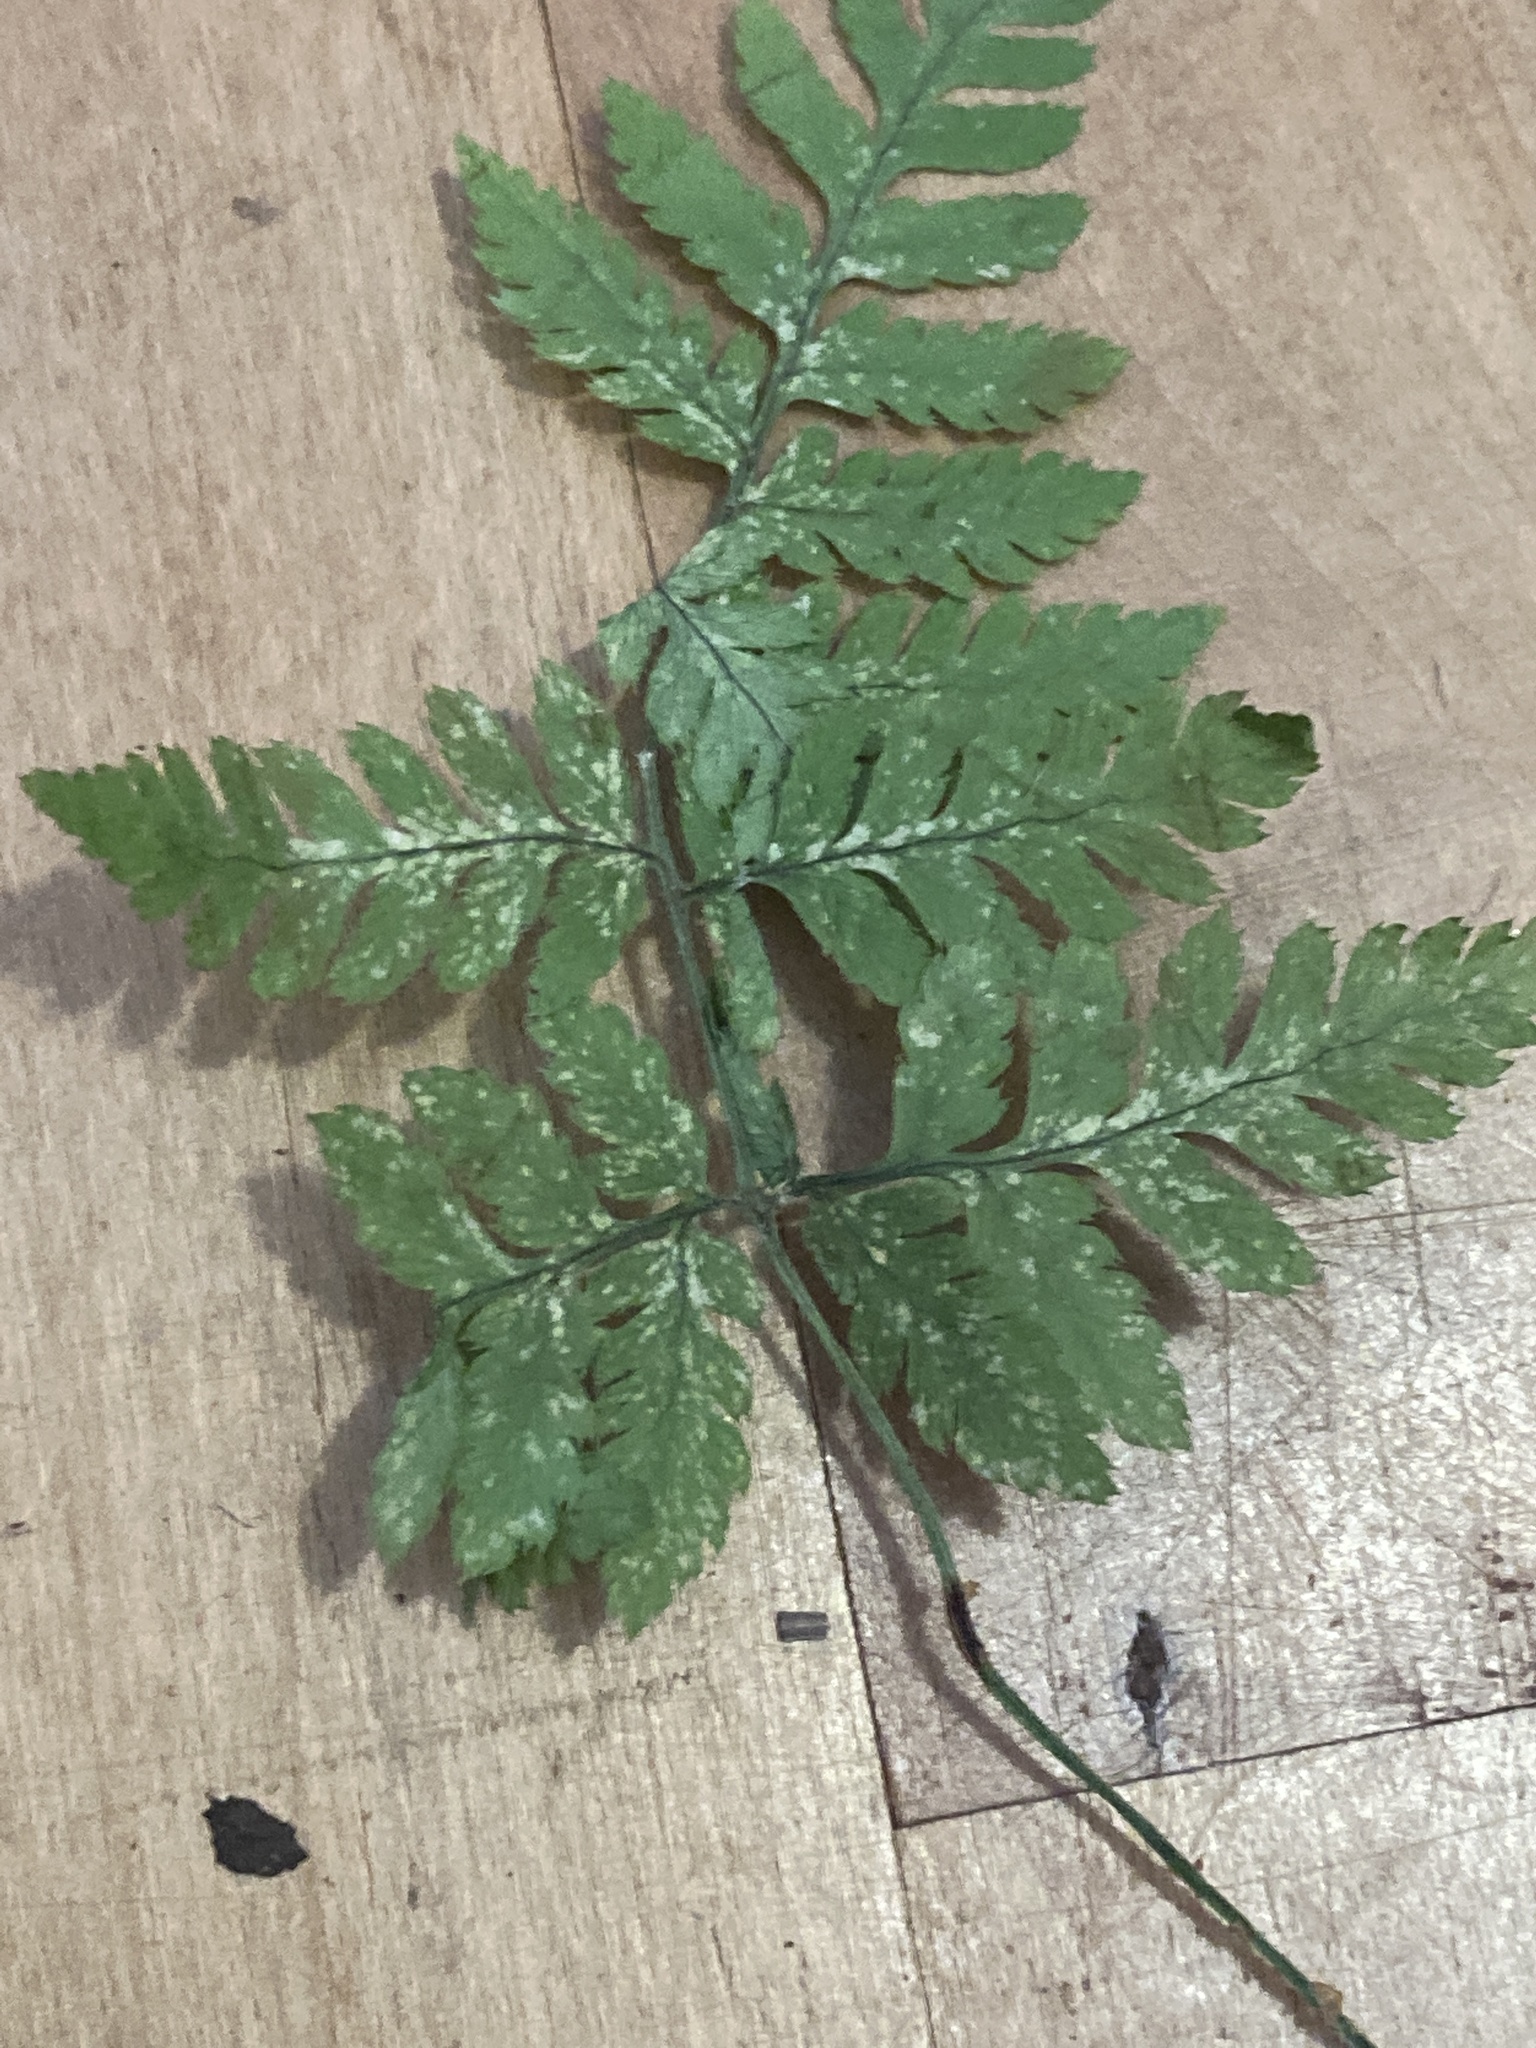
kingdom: Plantae
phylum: Tracheophyta
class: Polypodiopsida
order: Polypodiales
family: Dryopteridaceae
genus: Dryopteris
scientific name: Dryopteris carthusiana
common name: Narrow buckler-fern
